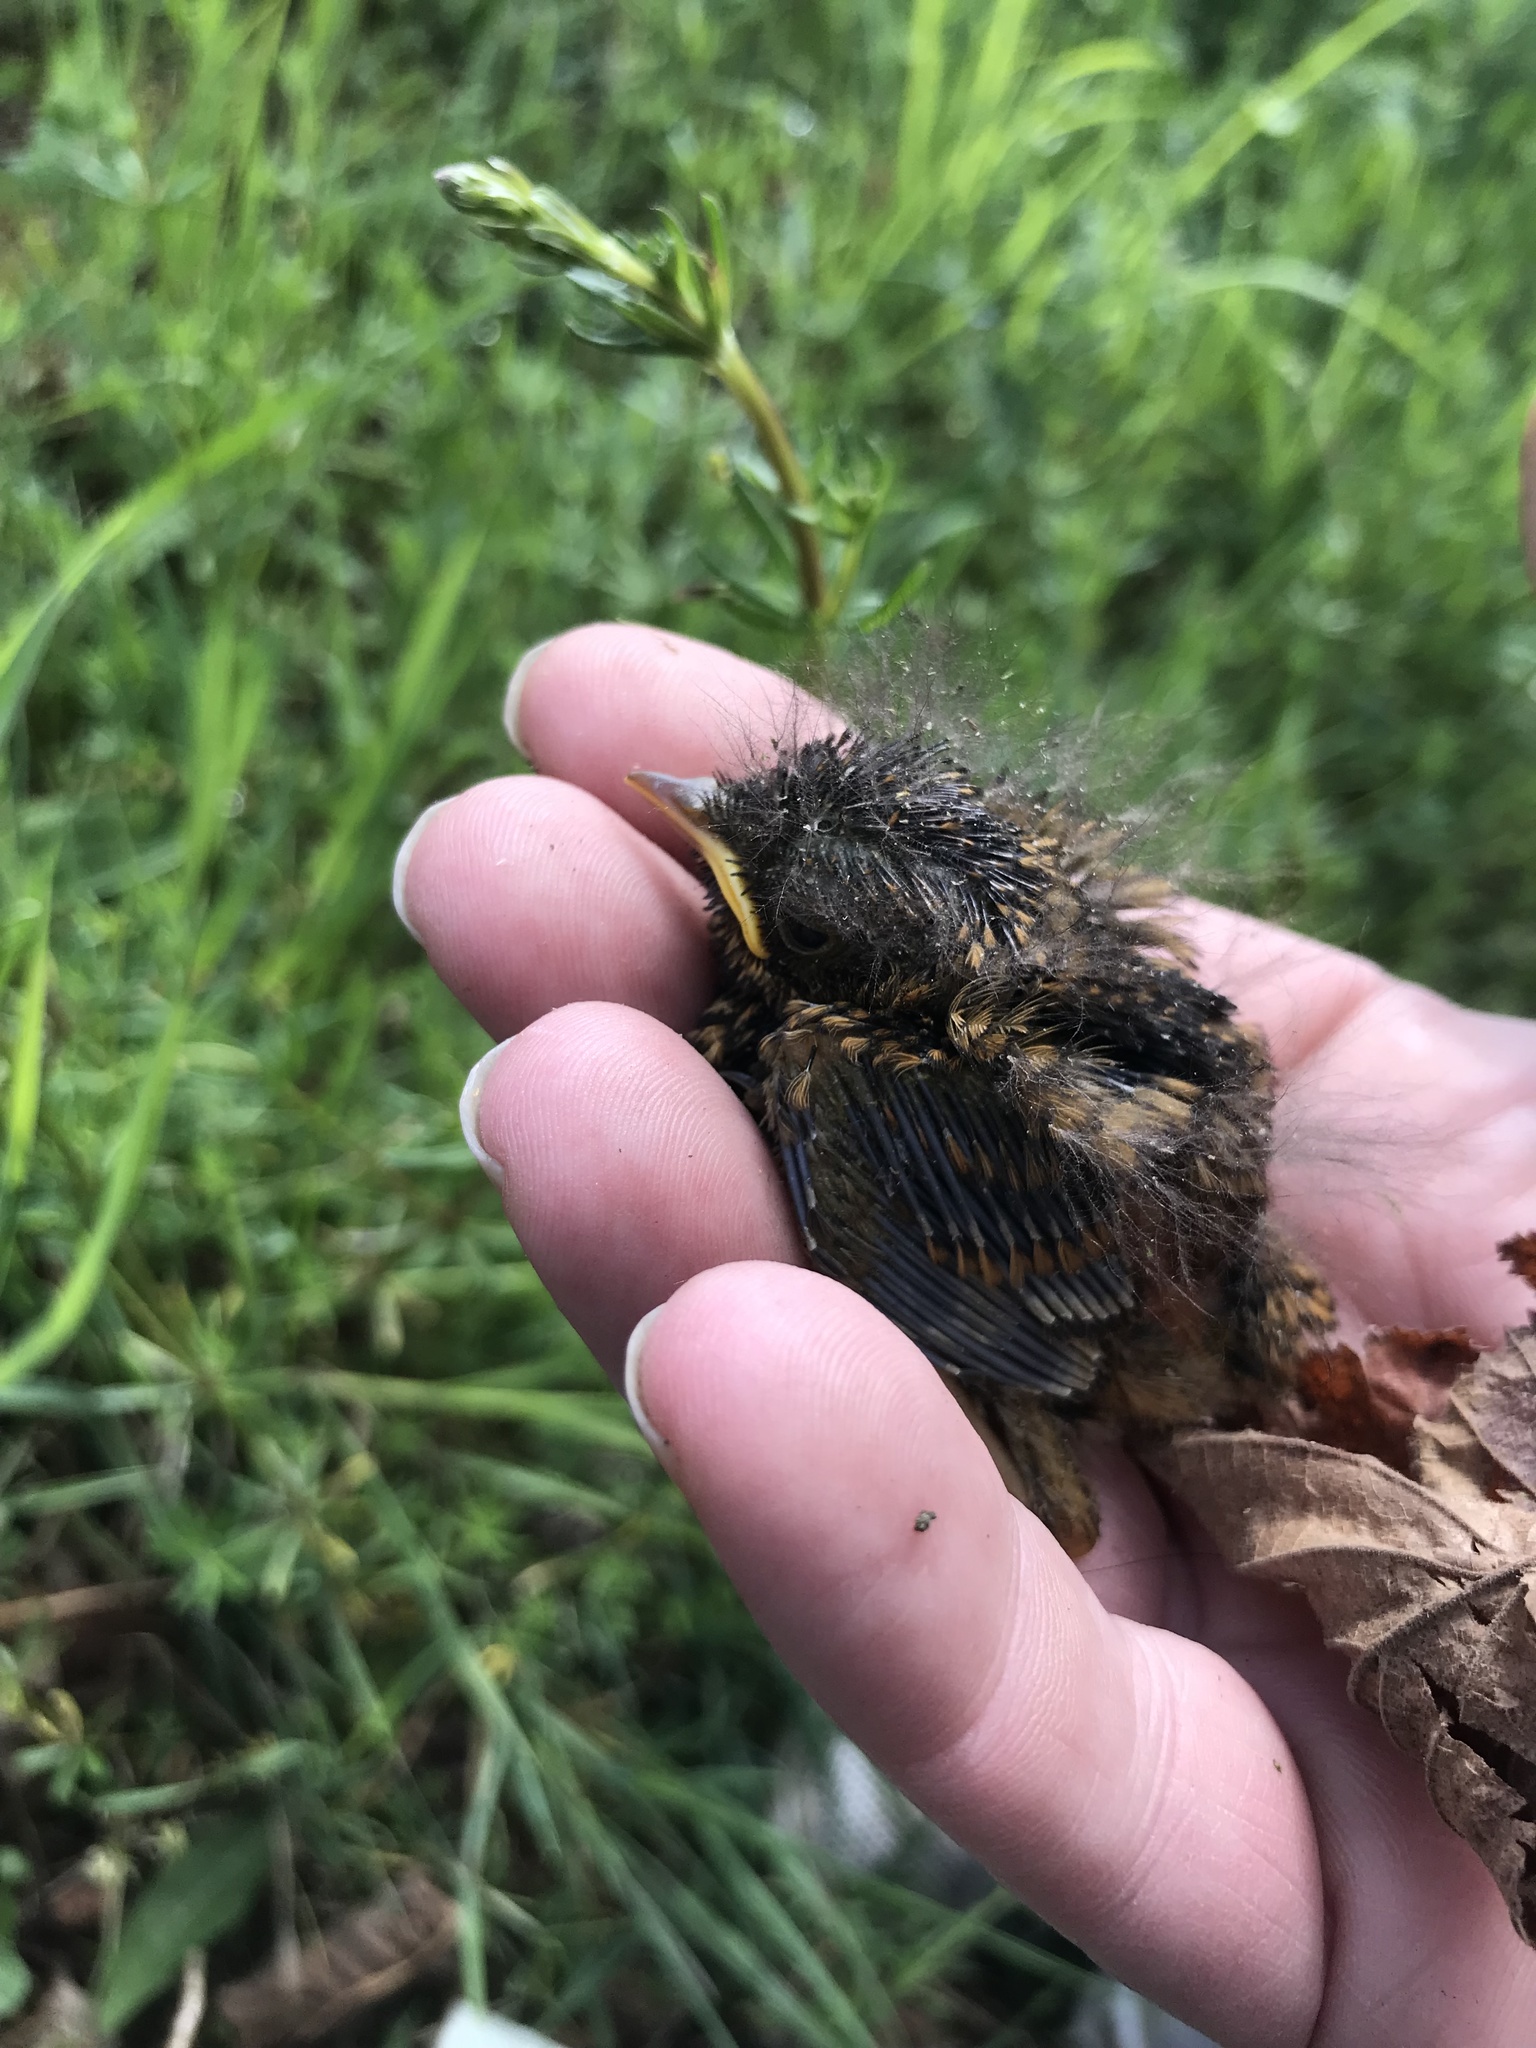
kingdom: Animalia
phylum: Chordata
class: Aves
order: Passeriformes
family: Muscicapidae
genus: Erithacus
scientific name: Erithacus rubecula
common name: European robin
